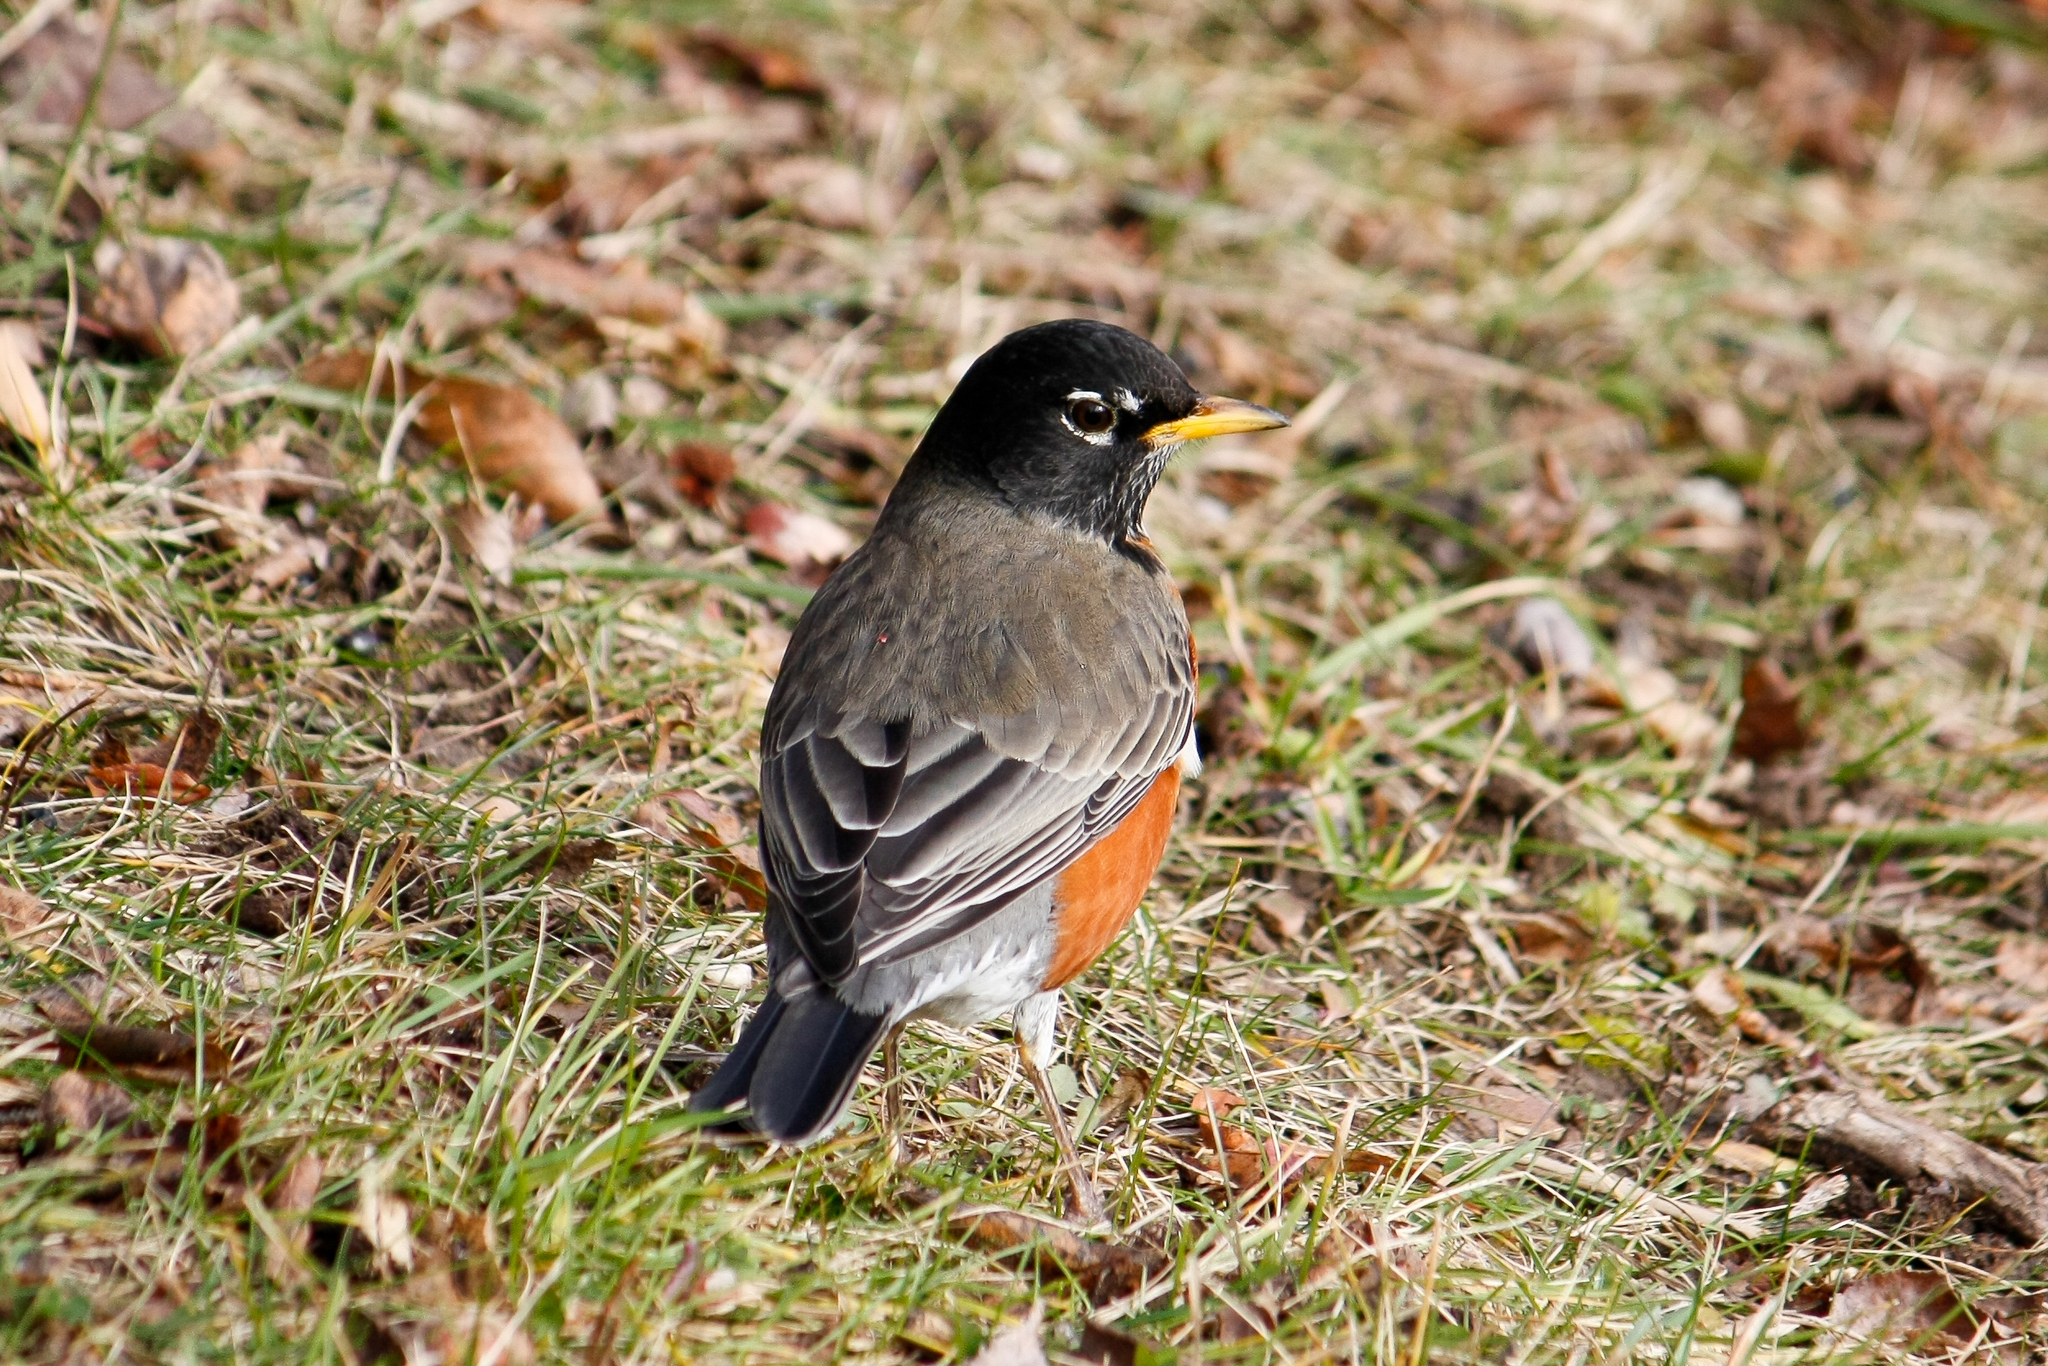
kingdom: Animalia
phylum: Chordata
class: Aves
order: Passeriformes
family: Turdidae
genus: Turdus
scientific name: Turdus migratorius
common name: American robin
